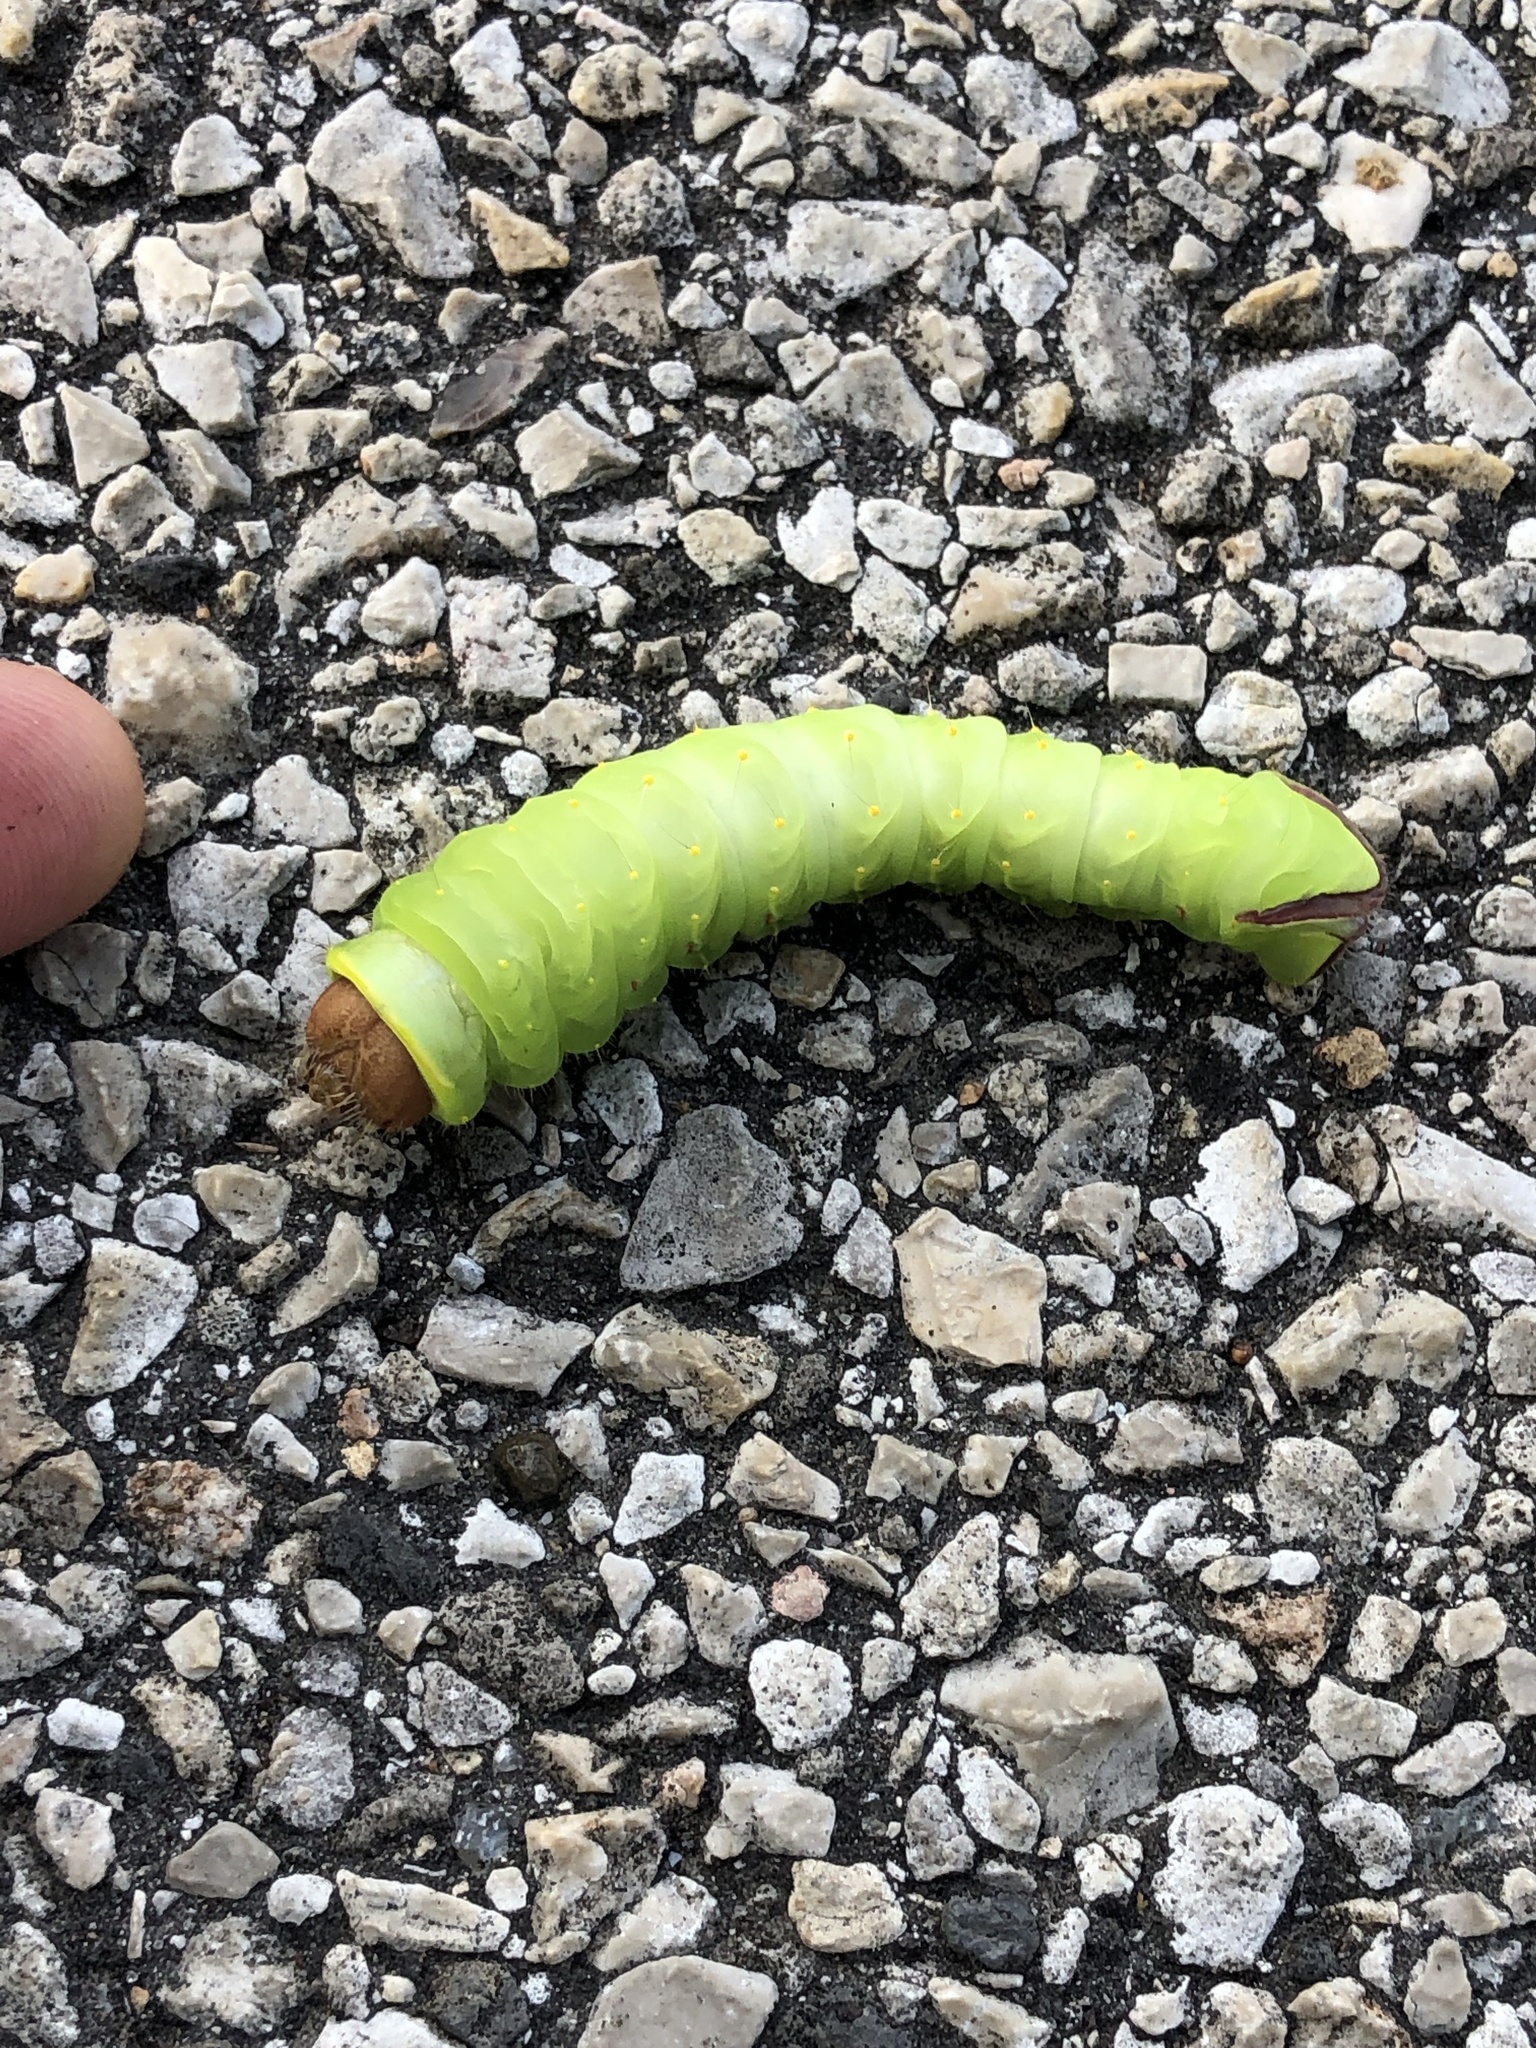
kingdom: Animalia
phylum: Arthropoda
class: Insecta
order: Lepidoptera
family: Saturniidae
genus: Antheraea
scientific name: Antheraea polyphemus
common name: Polyphemus moth
